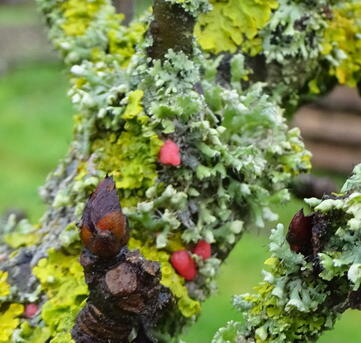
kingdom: Fungi
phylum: Ascomycota
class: Sordariomycetes
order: Hypocreales
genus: Illosporiopsis
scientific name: Illosporiopsis christiansenii
